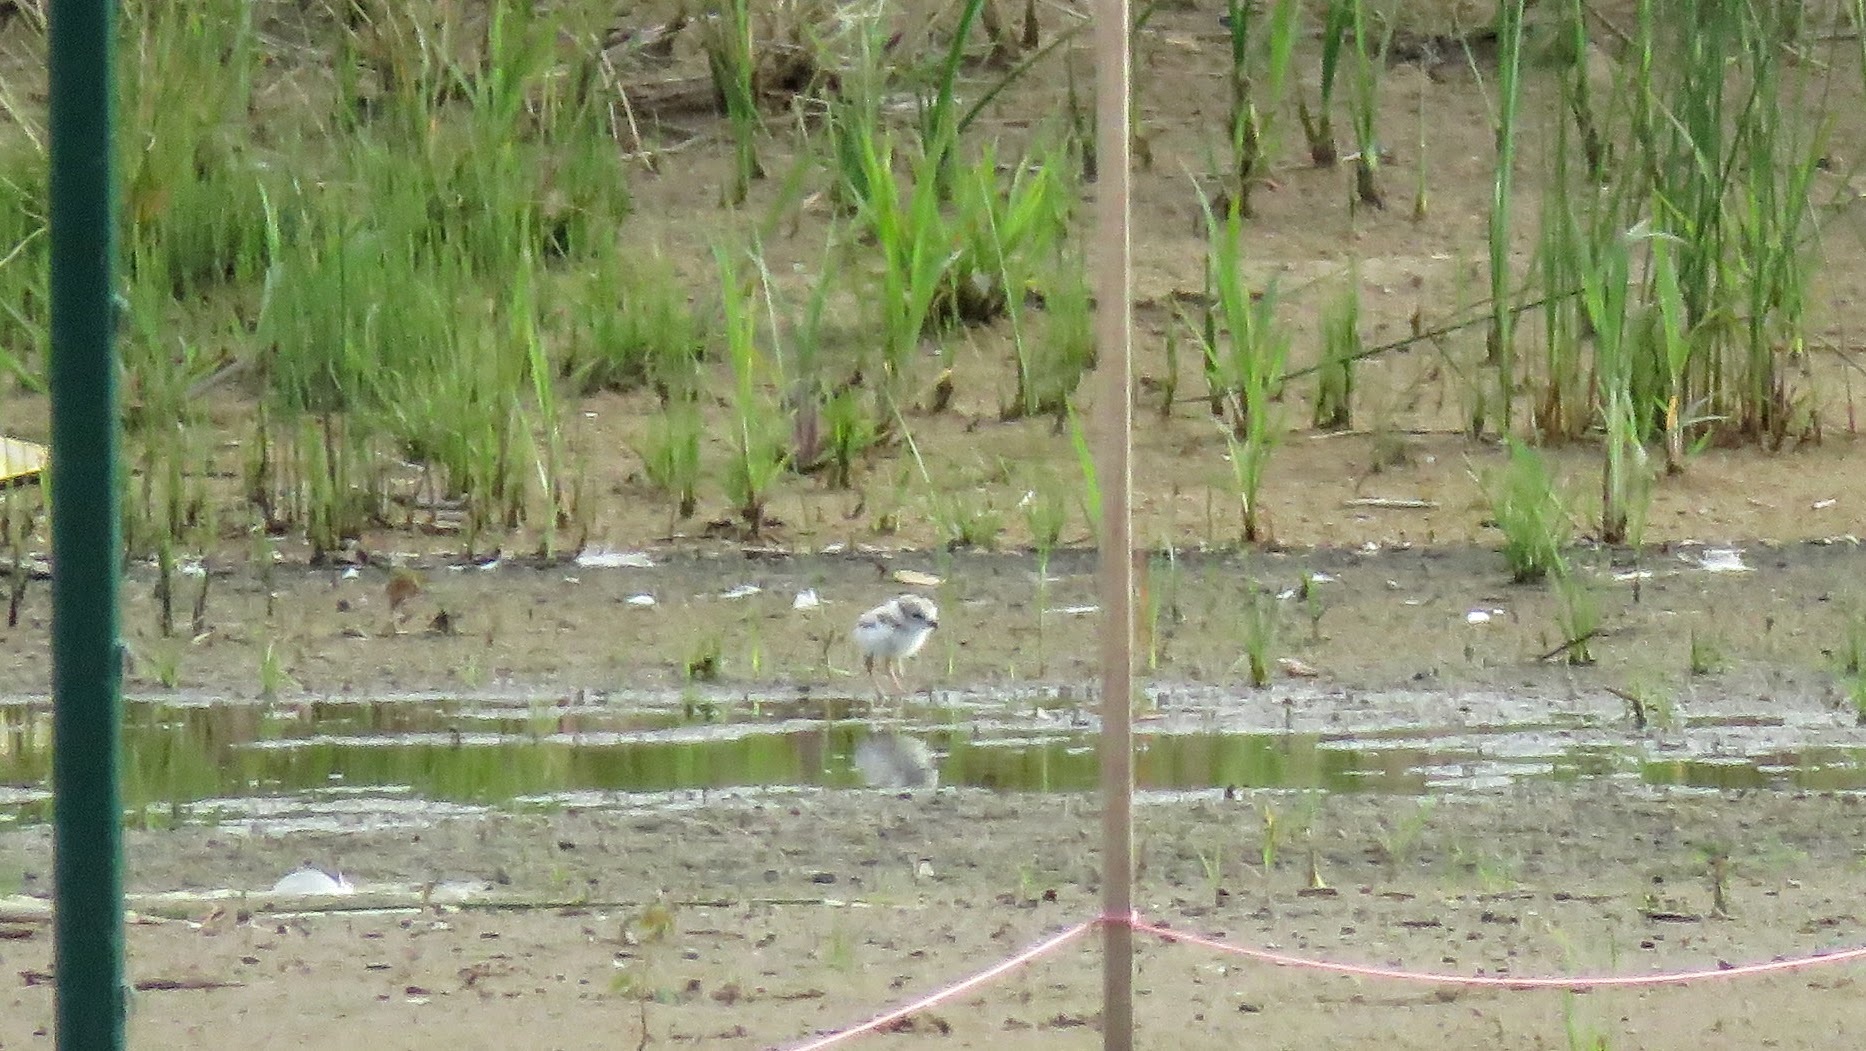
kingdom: Animalia
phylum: Chordata
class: Aves
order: Charadriiformes
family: Charadriidae
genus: Charadrius
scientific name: Charadrius melodus
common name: Piping plover
